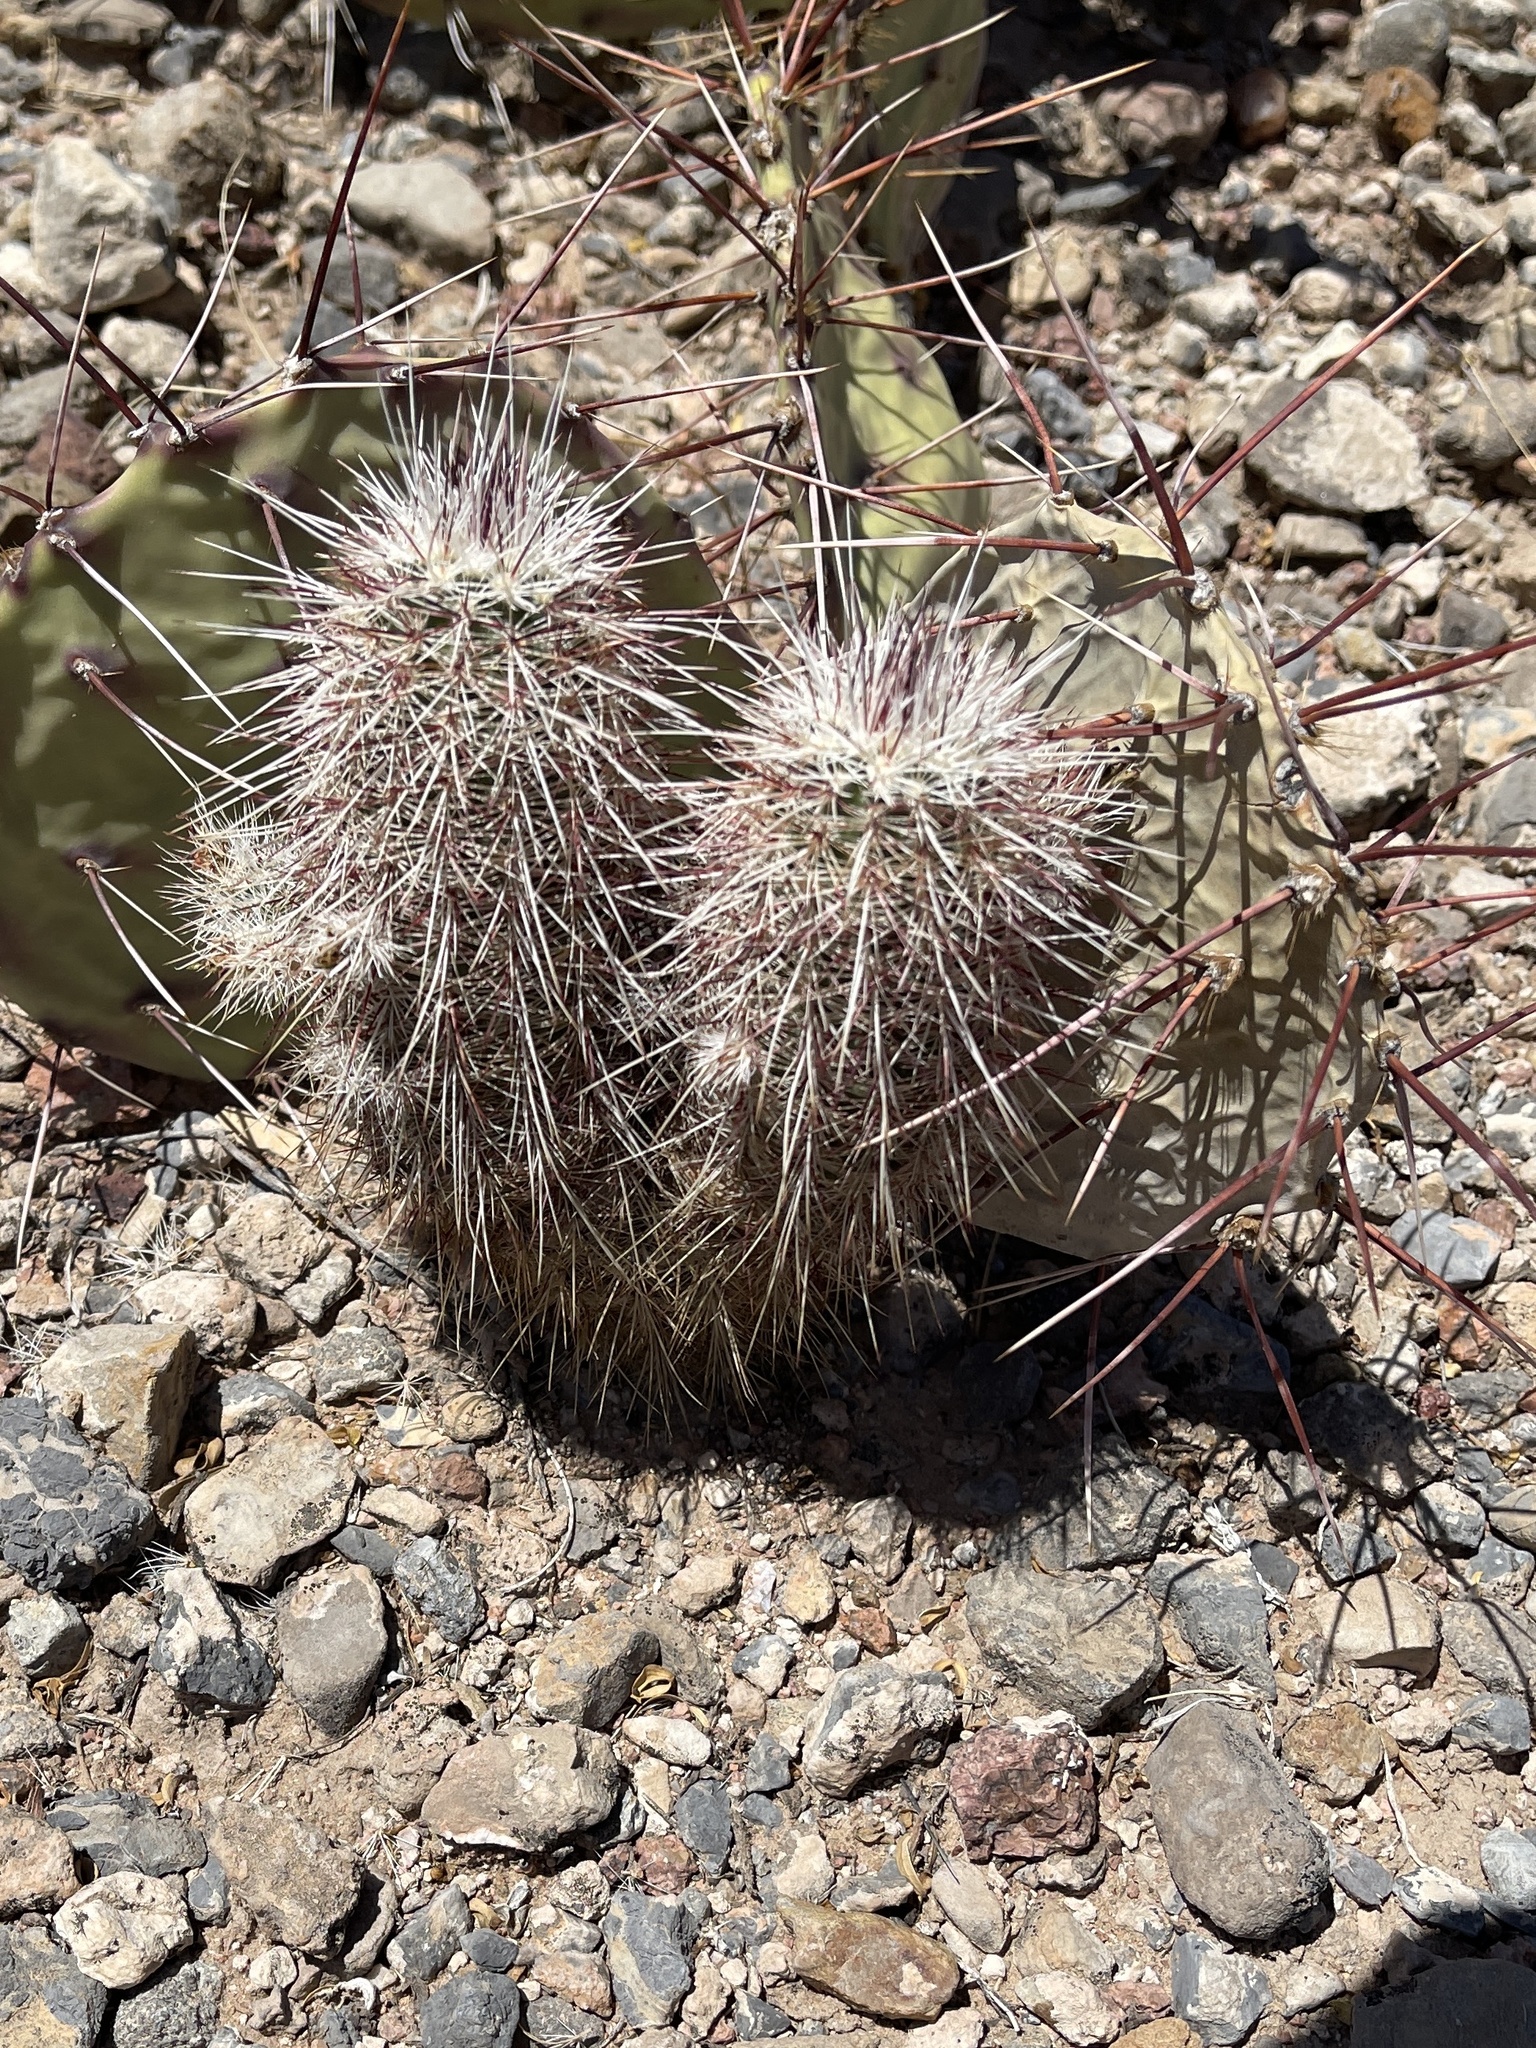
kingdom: Plantae
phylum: Tracheophyta
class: Magnoliopsida
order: Caryophyllales
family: Cactaceae
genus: Echinocereus
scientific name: Echinocereus viridiflorus
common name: Nylon hedgehog cactus
